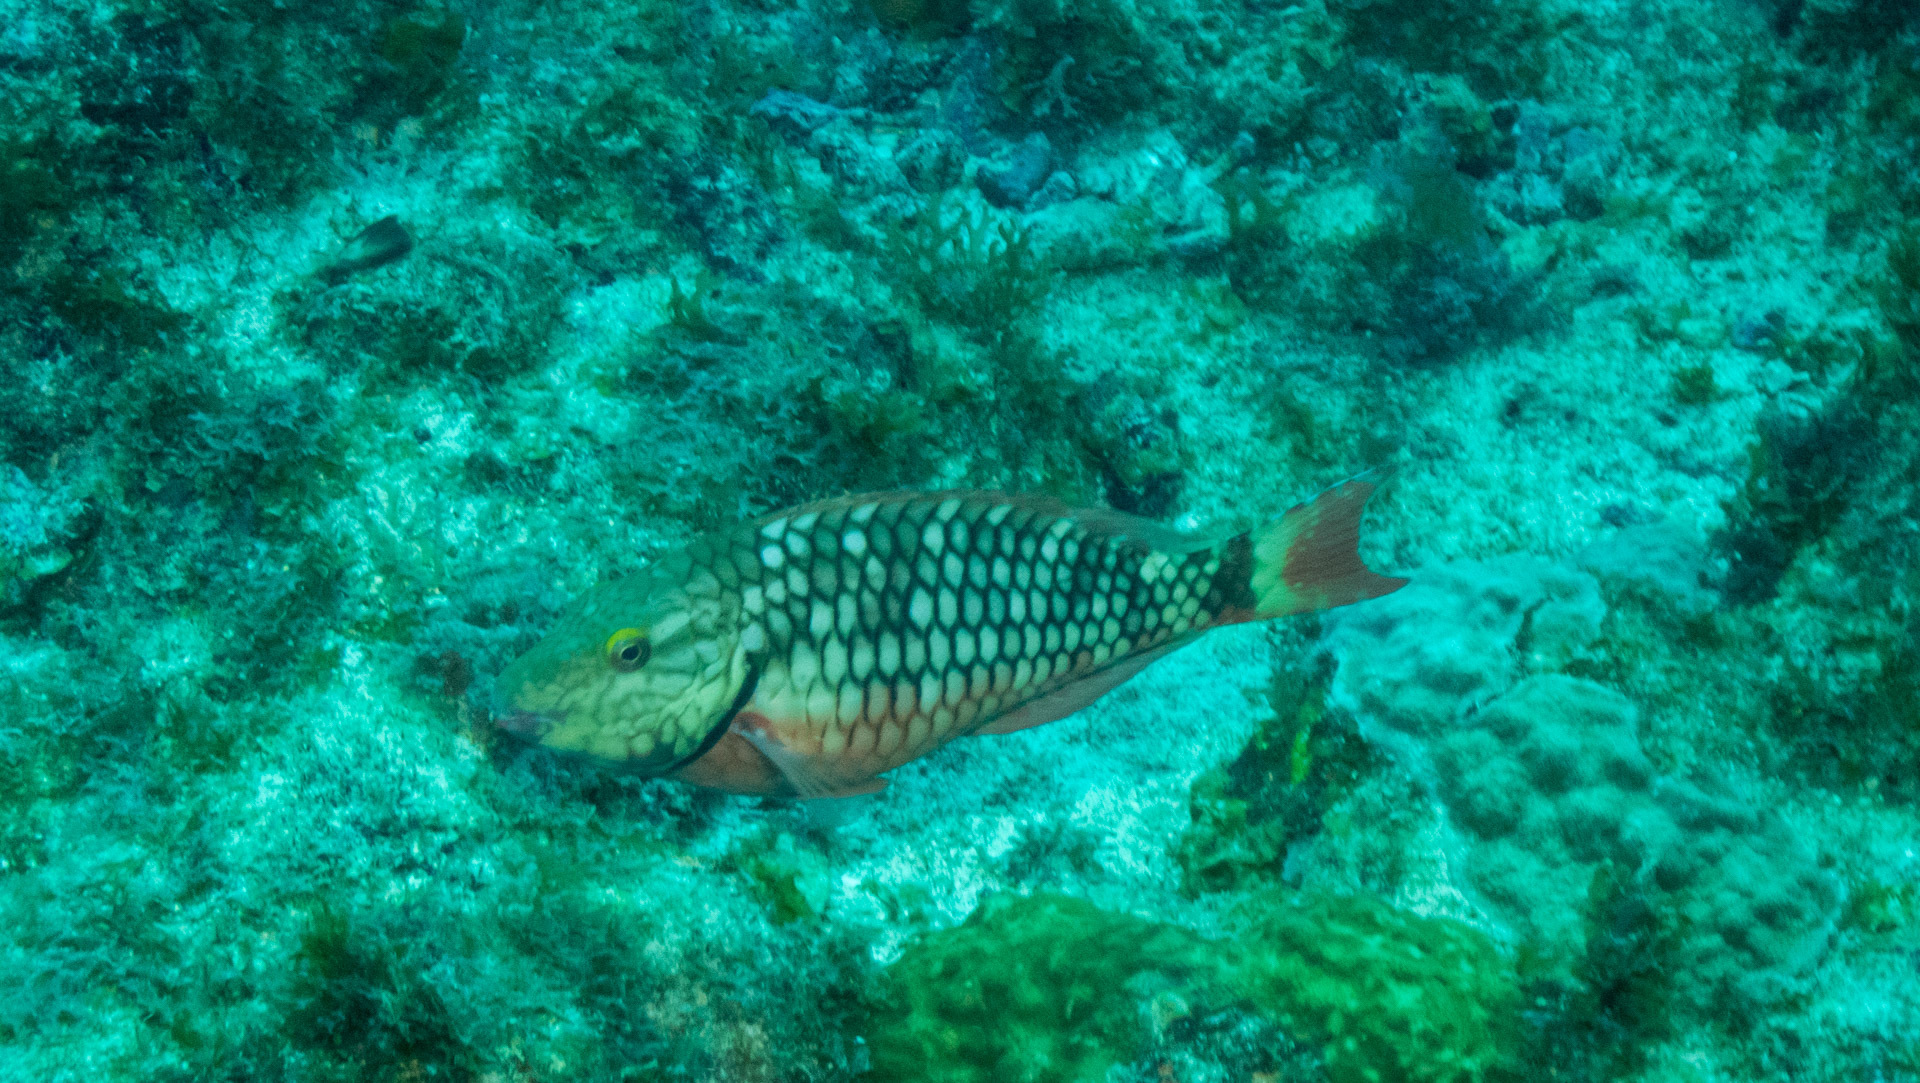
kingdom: Animalia
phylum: Chordata
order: Perciformes
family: Scaridae
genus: Sparisoma
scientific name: Sparisoma viride
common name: Stoplight parrotfish
